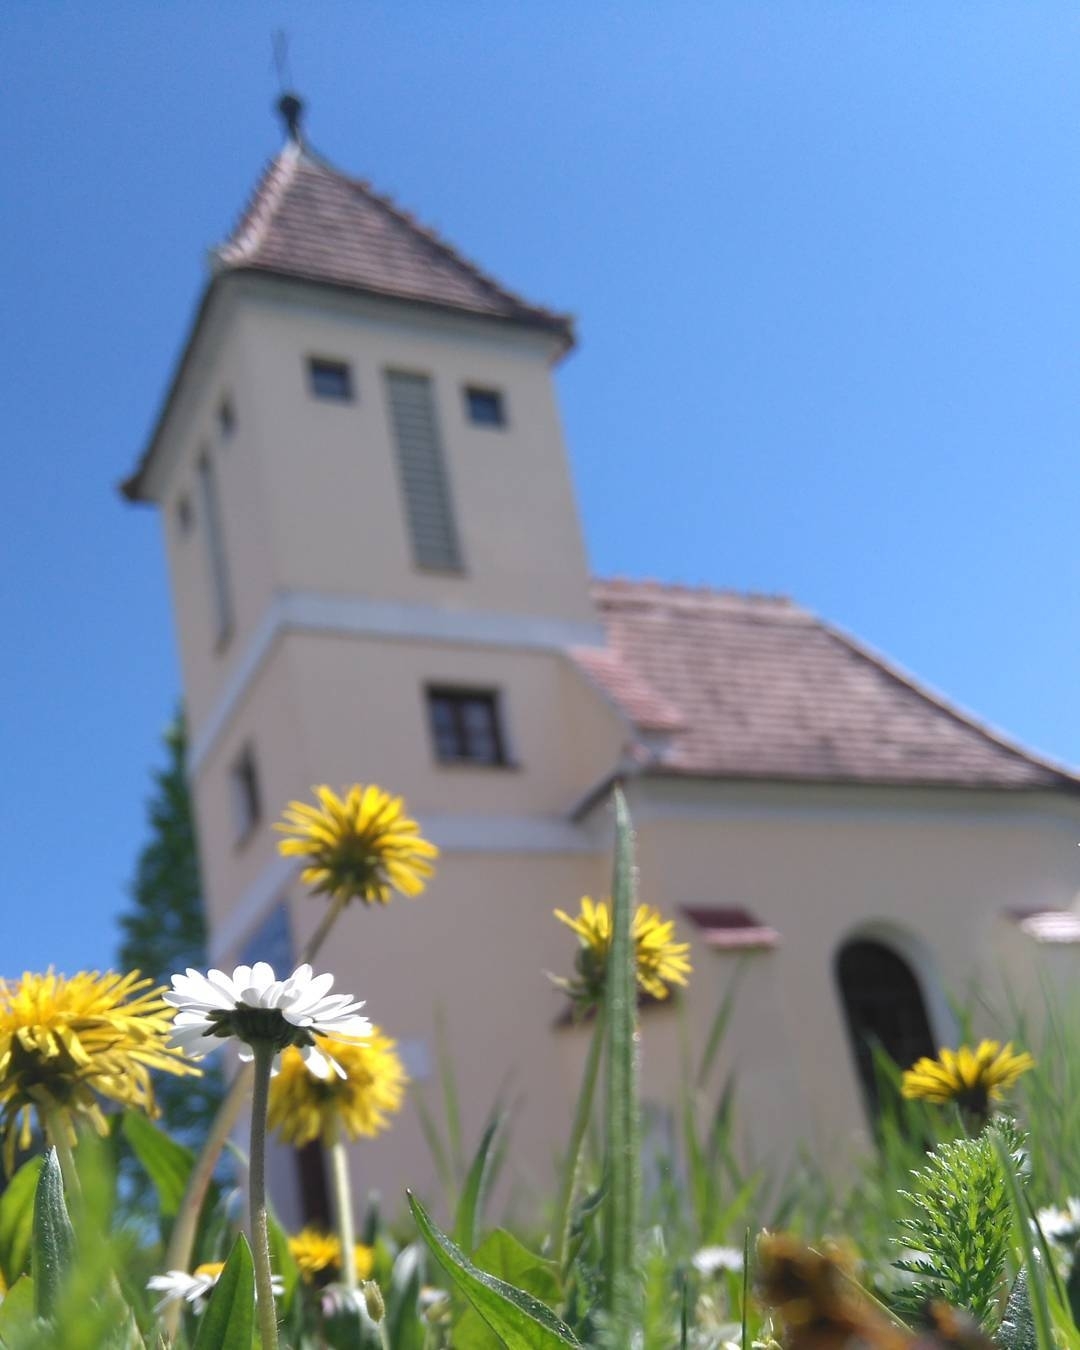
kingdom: Plantae
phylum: Tracheophyta
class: Magnoliopsida
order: Asterales
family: Asteraceae
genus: Bellis
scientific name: Bellis perennis
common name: Lawndaisy
